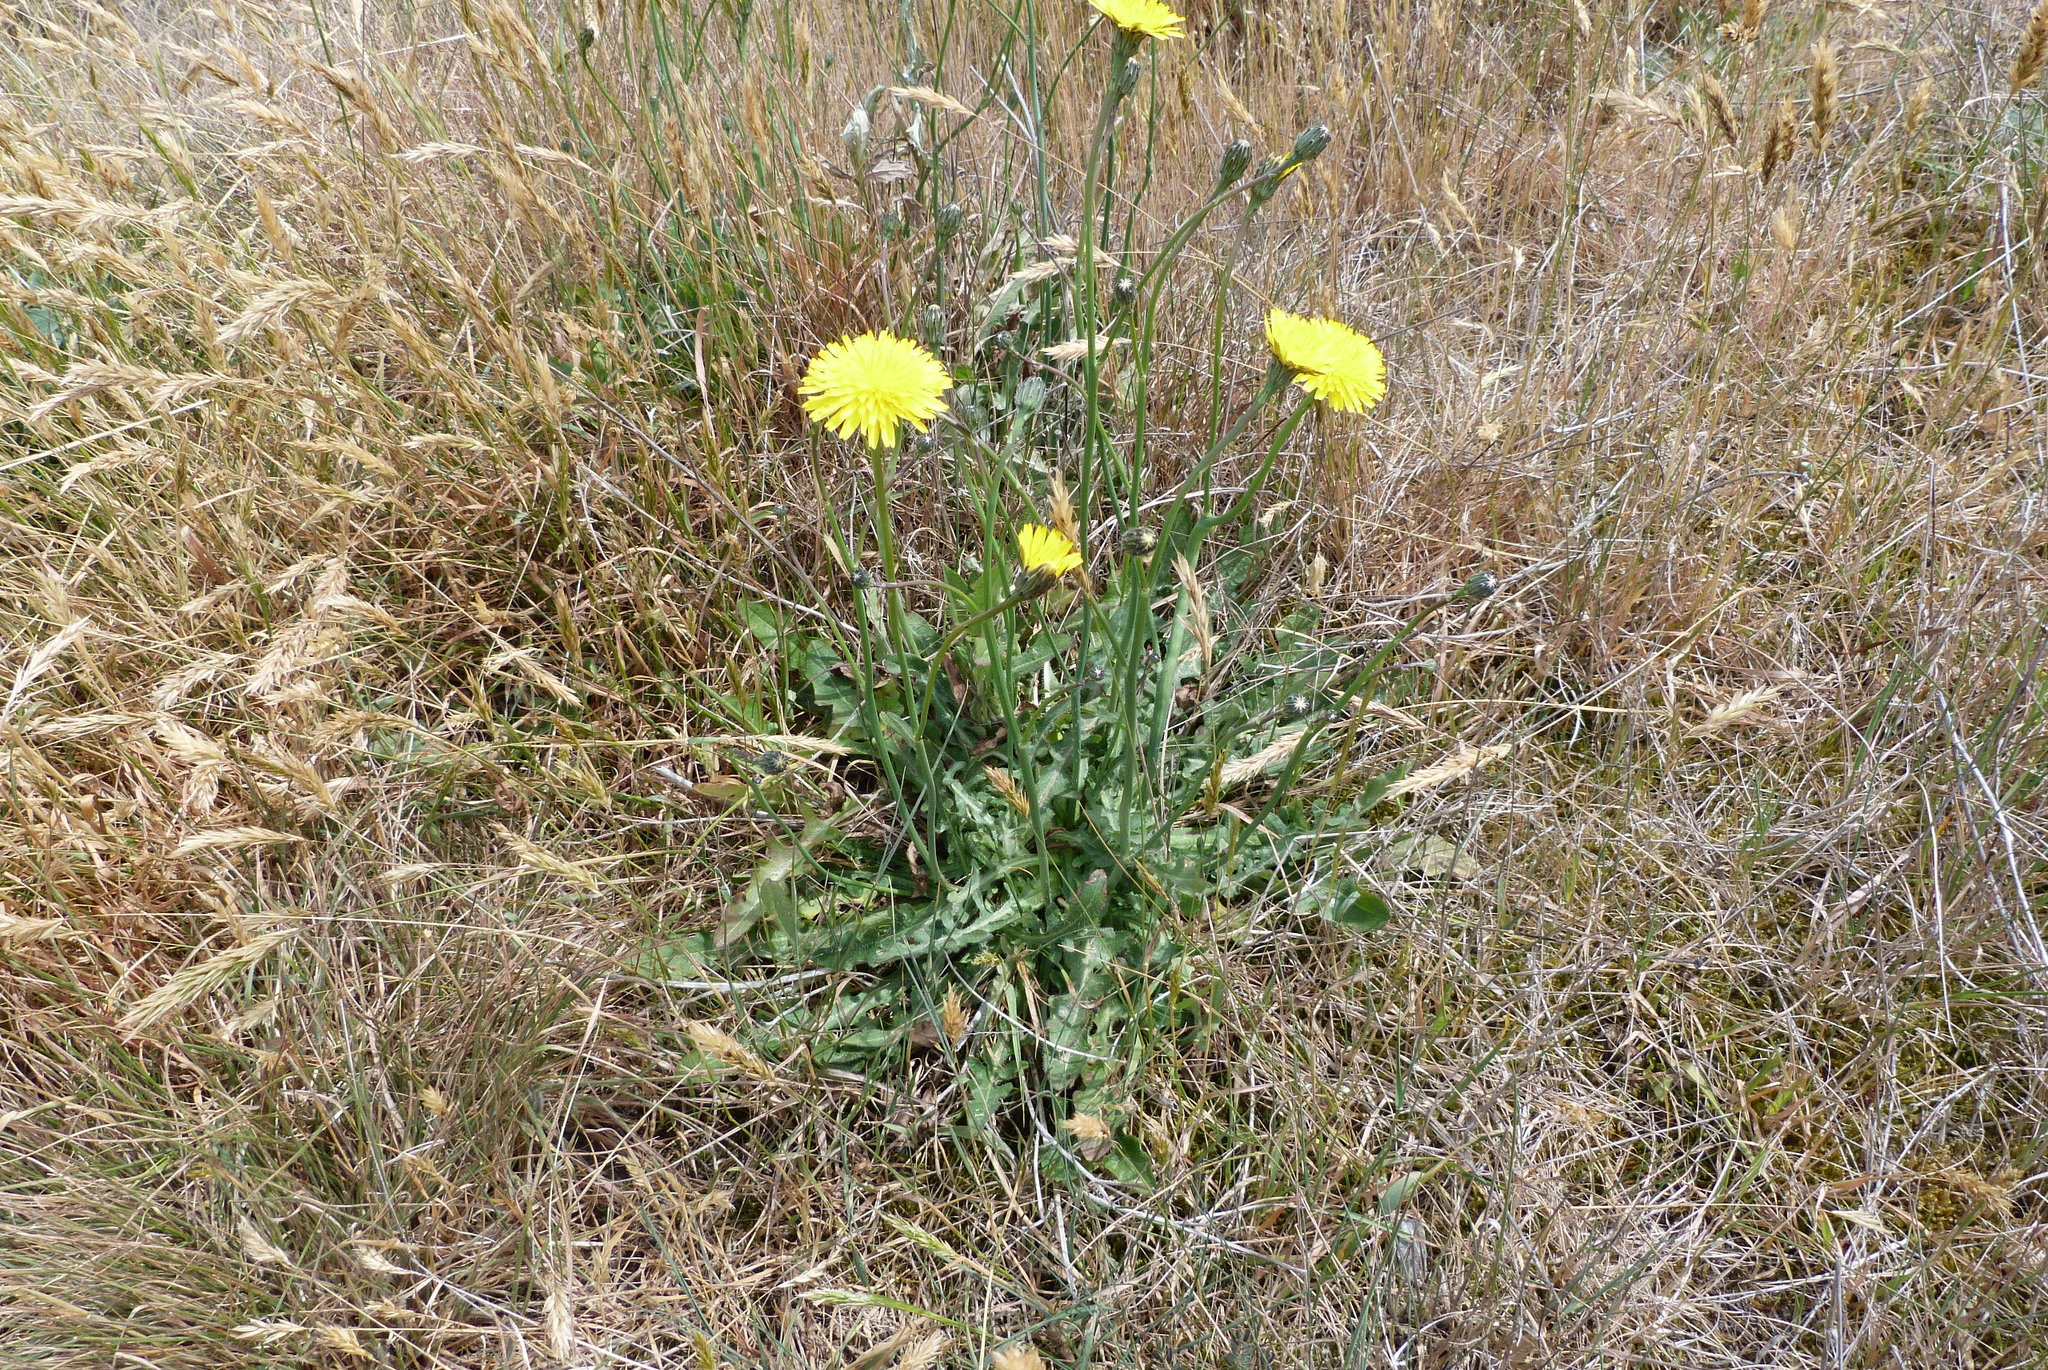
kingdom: Plantae
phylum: Tracheophyta
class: Magnoliopsida
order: Asterales
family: Asteraceae
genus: Hypochaeris
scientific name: Hypochaeris radicata
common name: Flatweed
